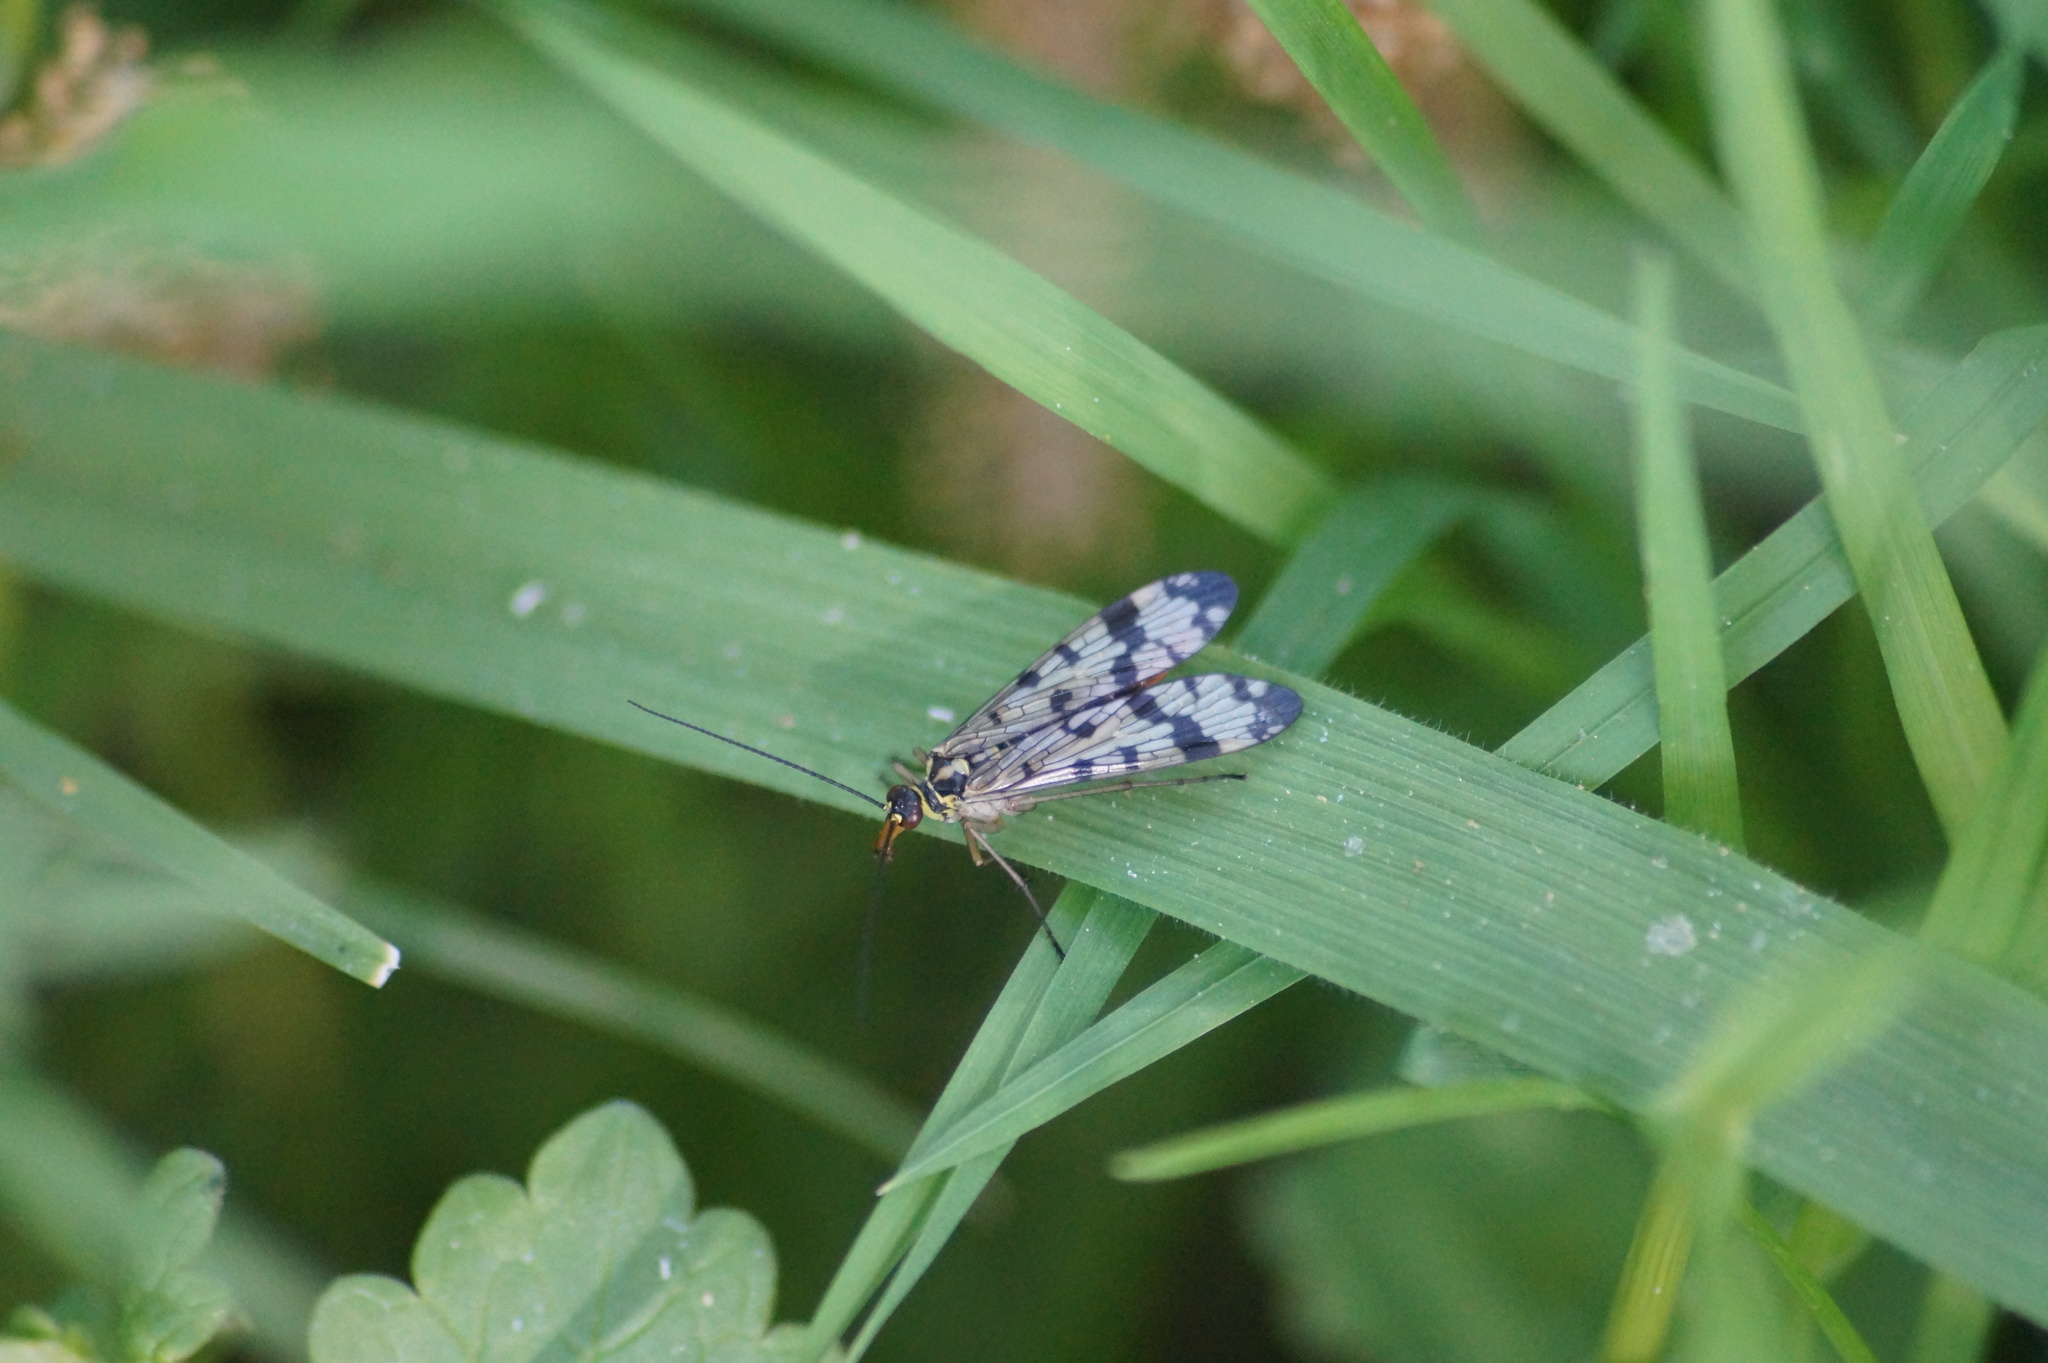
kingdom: Animalia
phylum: Arthropoda
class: Insecta
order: Mecoptera
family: Panorpidae
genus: Panorpa
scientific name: Panorpa communis
